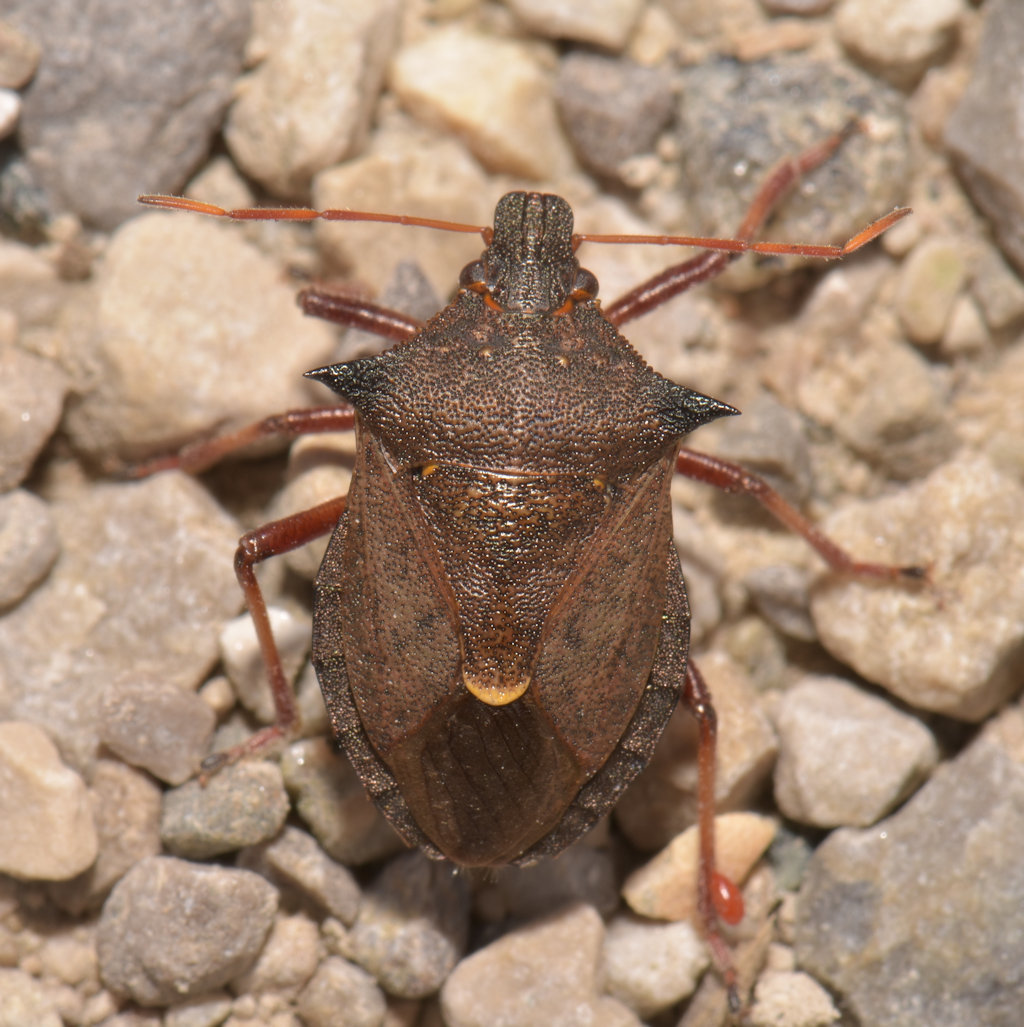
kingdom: Animalia
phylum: Arthropoda
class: Insecta
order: Hemiptera
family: Pentatomidae
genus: Picromerus
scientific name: Picromerus bidens
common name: Spiked shieldbug
